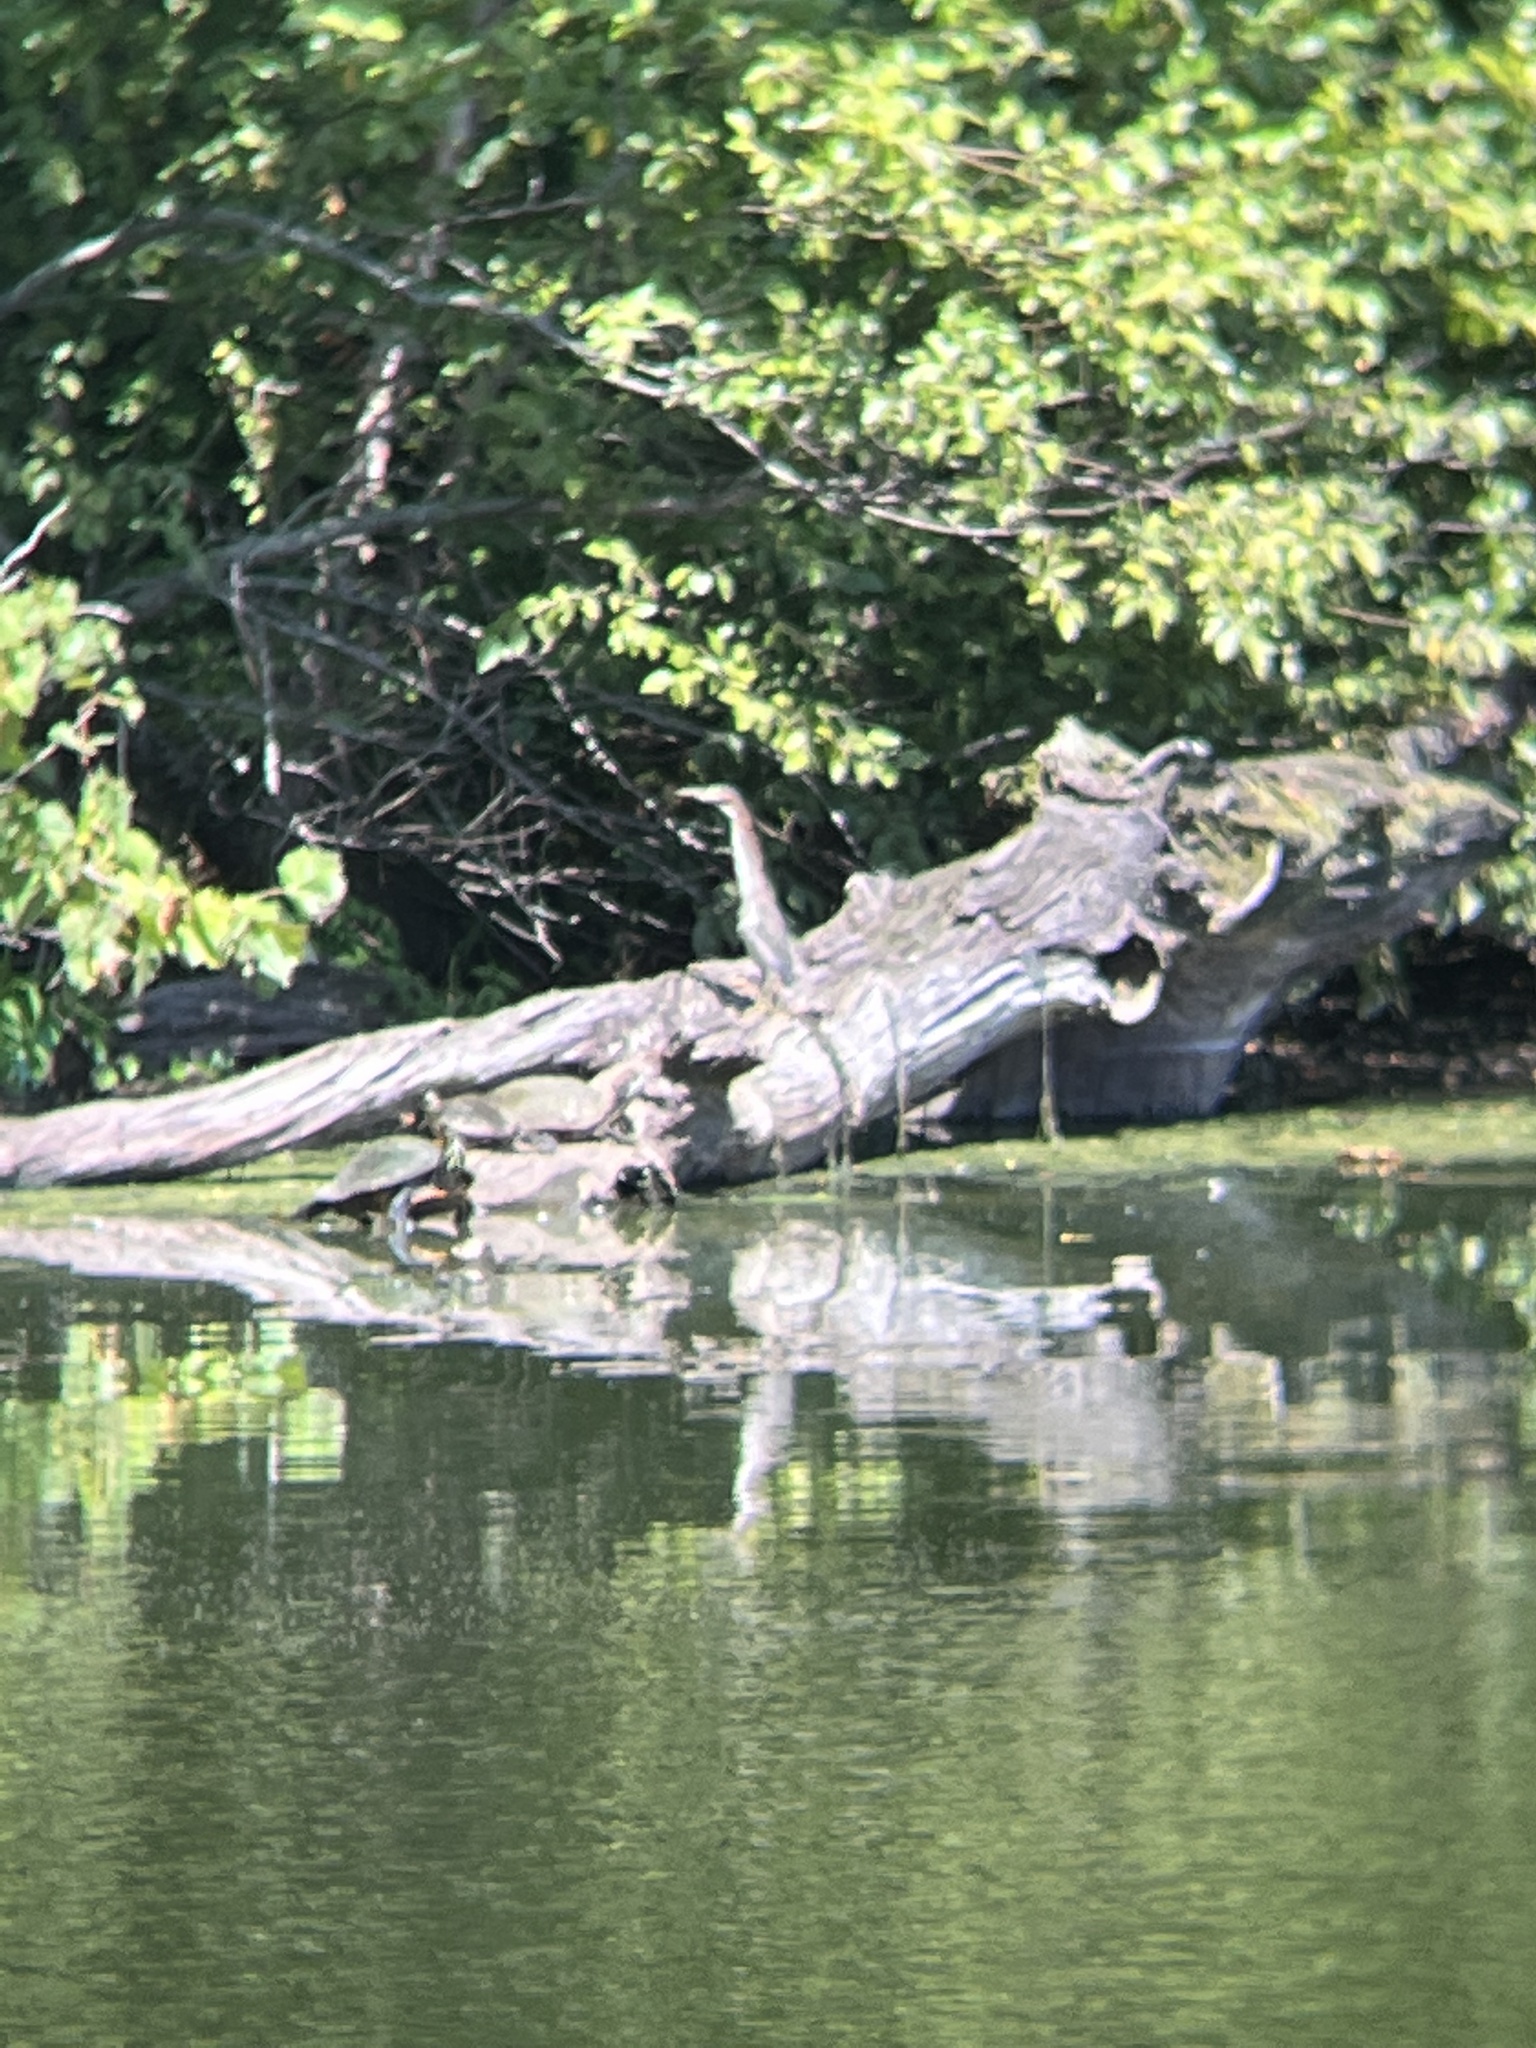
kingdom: Animalia
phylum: Chordata
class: Aves
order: Pelecaniformes
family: Ardeidae
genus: Butorides
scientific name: Butorides virescens
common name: Green heron
